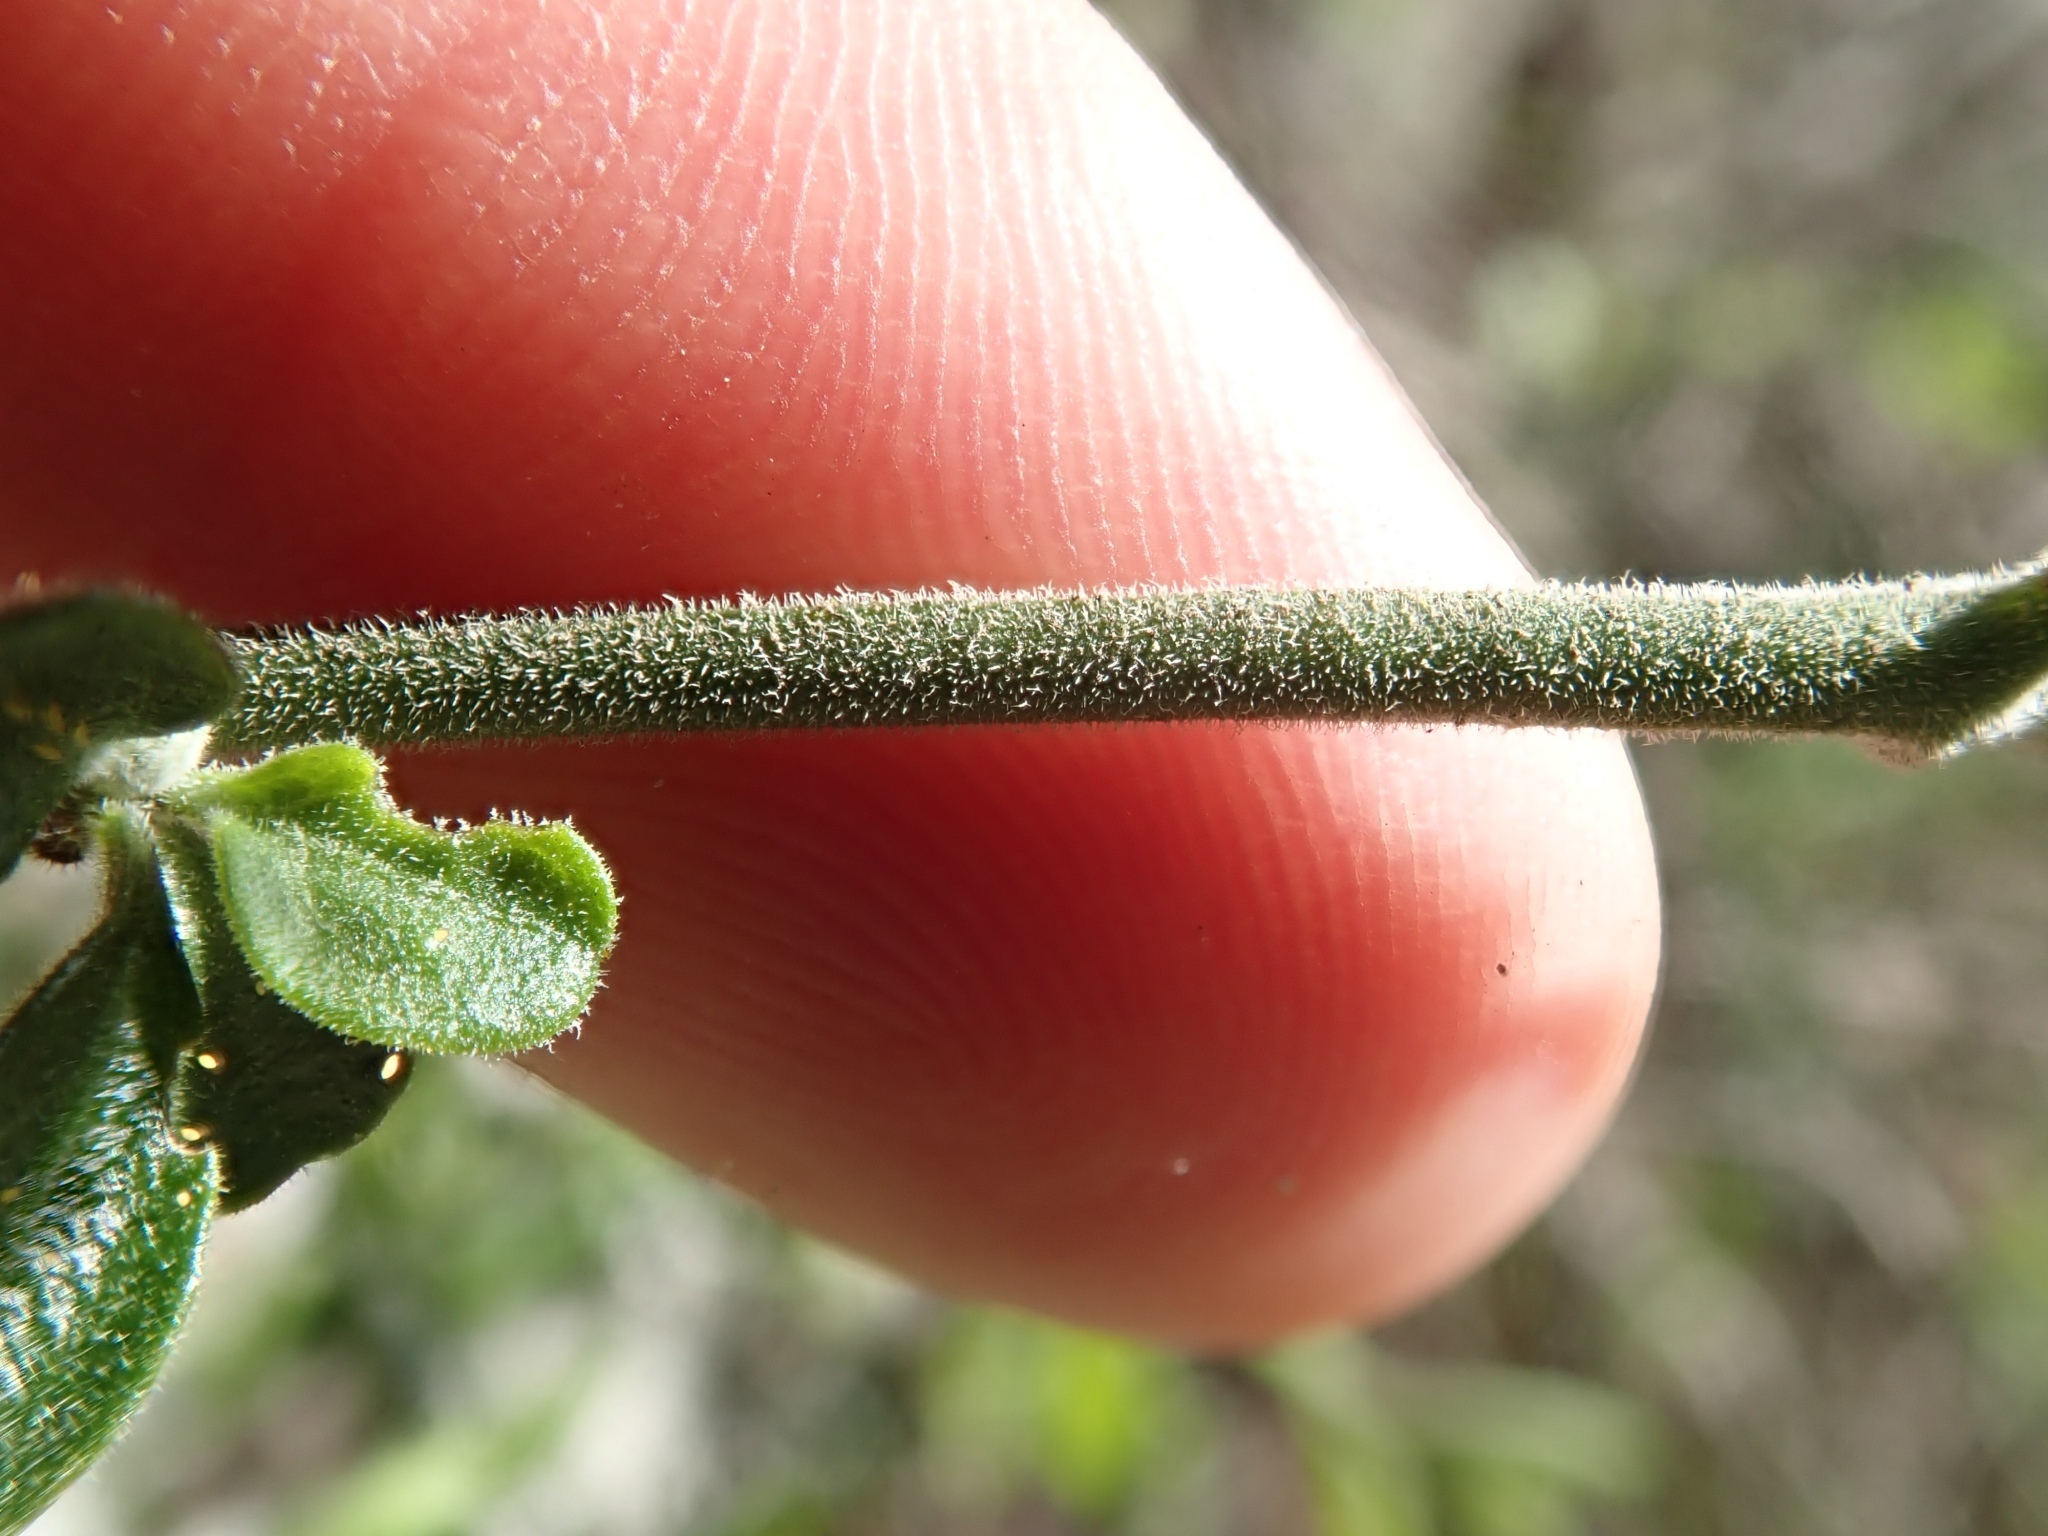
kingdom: Plantae
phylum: Tracheophyta
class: Magnoliopsida
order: Solanales
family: Solanaceae
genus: Solanum
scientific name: Solanum umbelliferum
